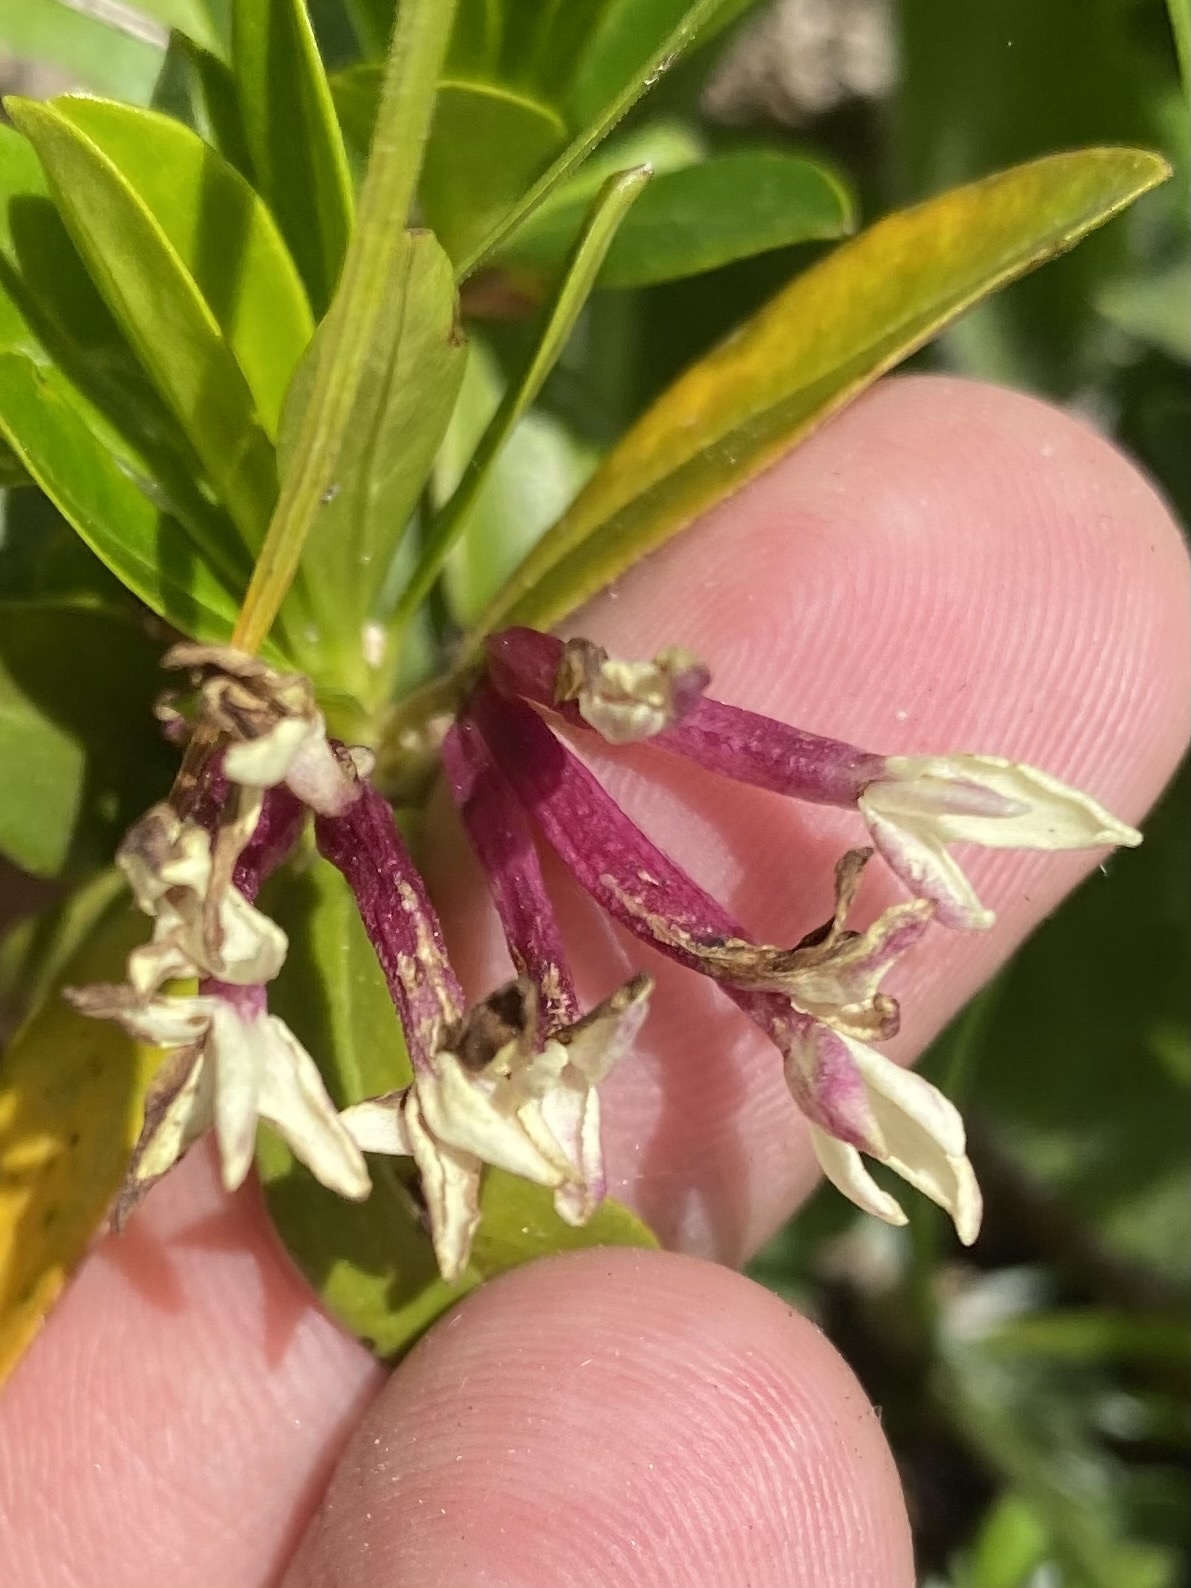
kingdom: Plantae
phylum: Tracheophyta
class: Magnoliopsida
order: Malvales
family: Thymelaeaceae
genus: Daphne
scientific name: Daphne glomerata
